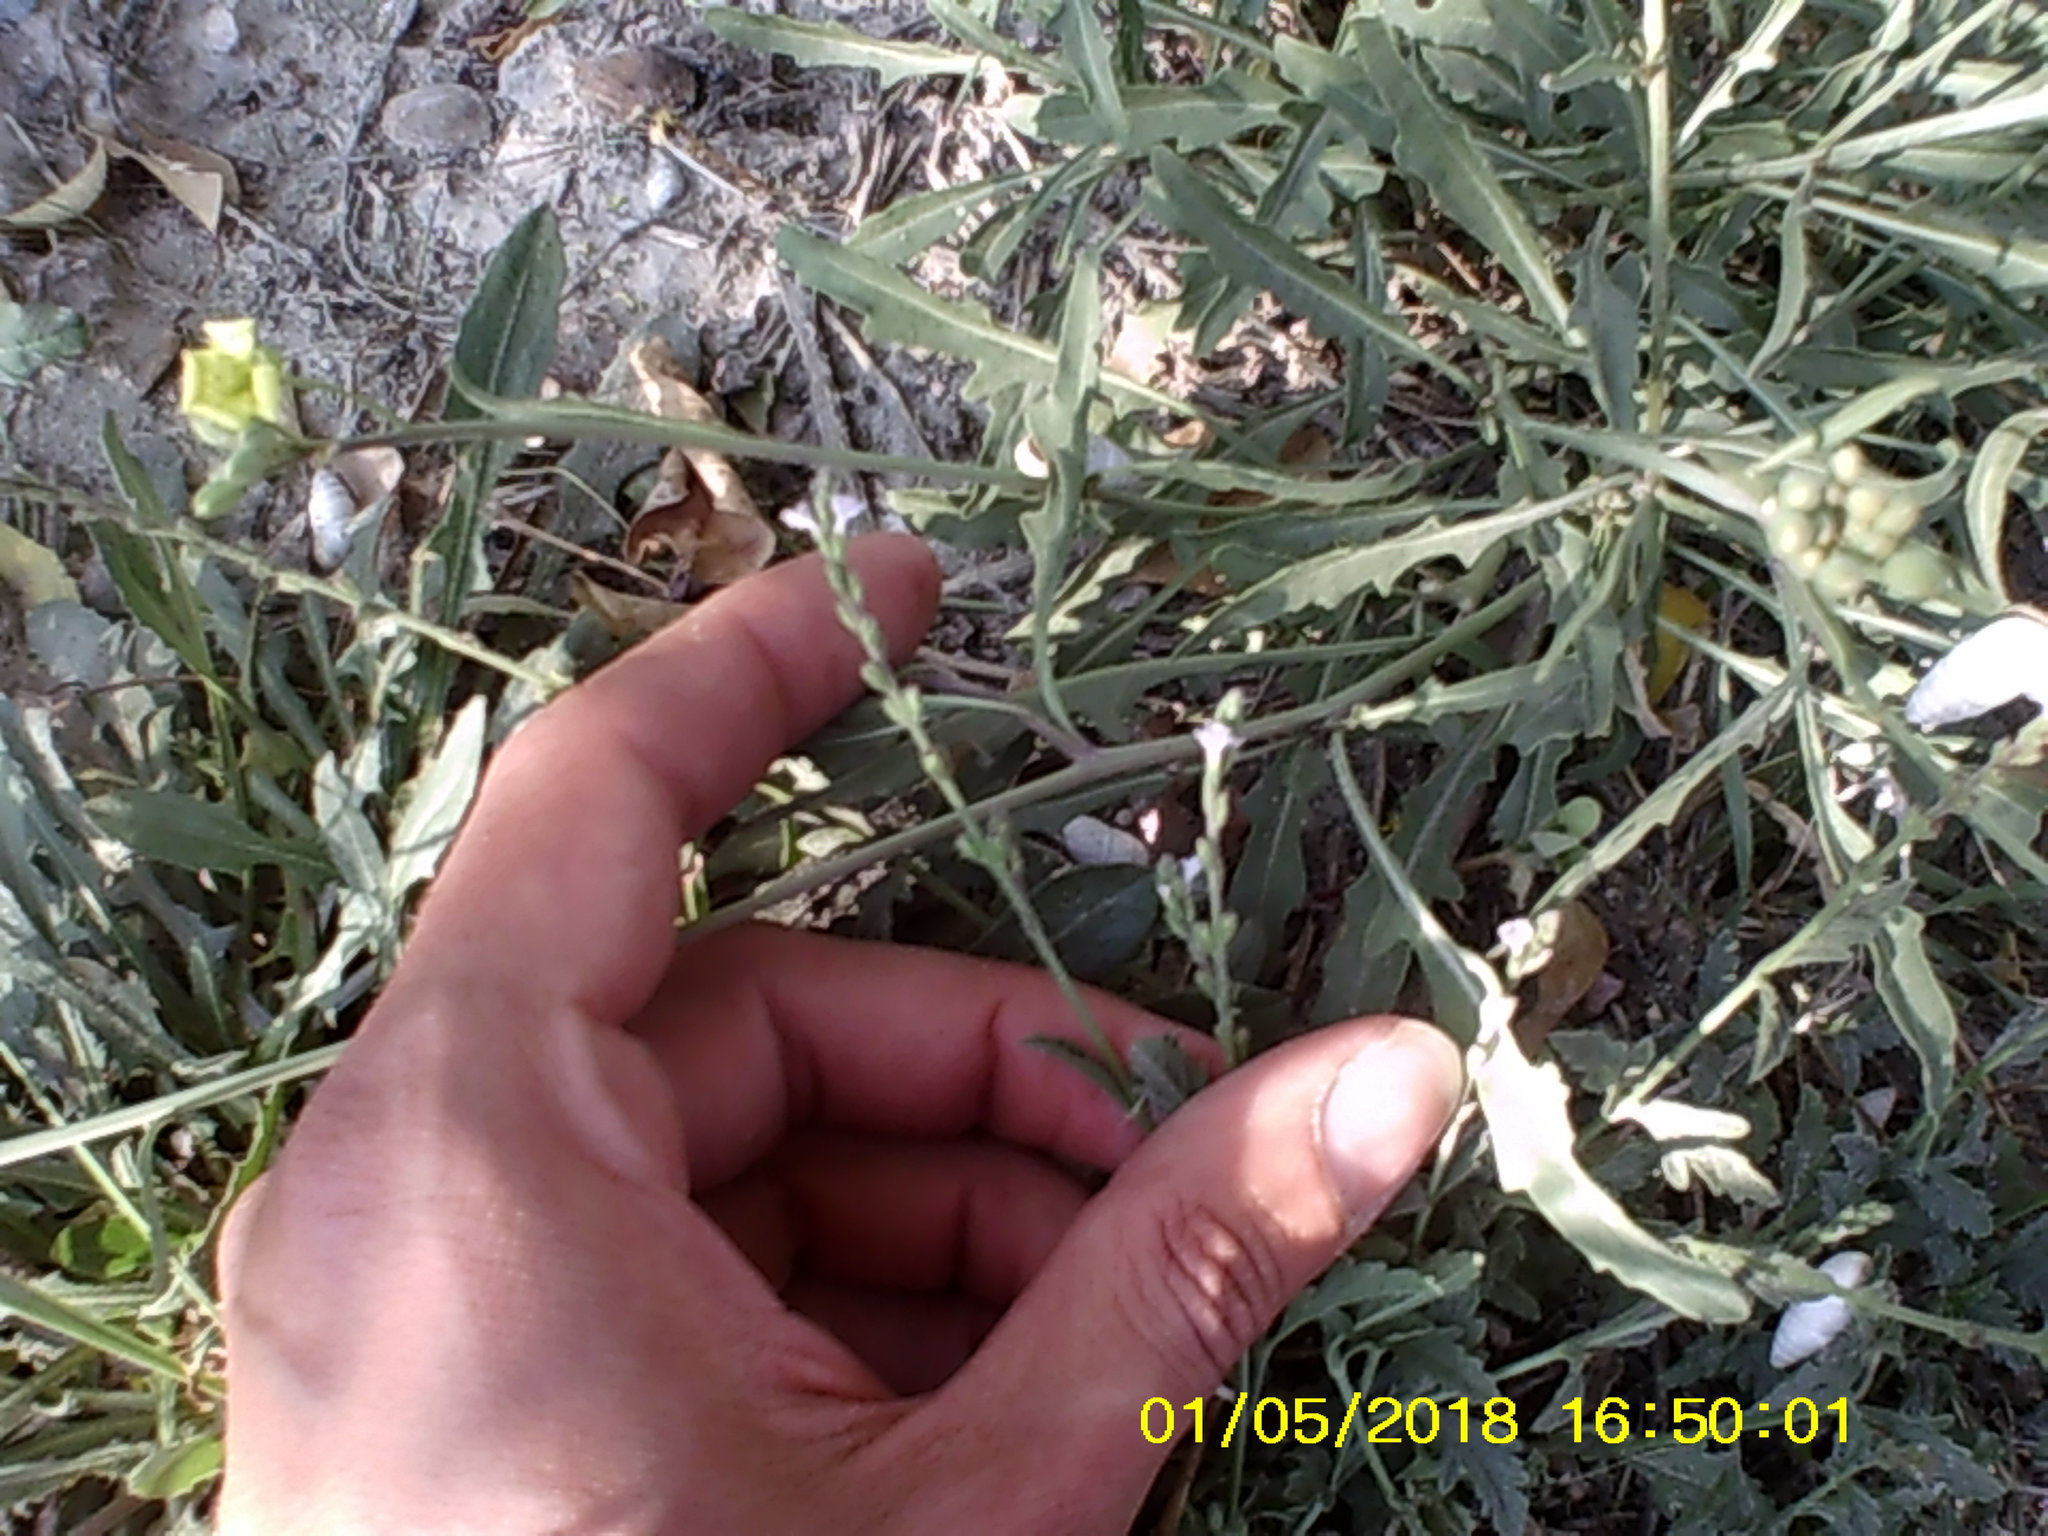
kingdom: Plantae
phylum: Tracheophyta
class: Magnoliopsida
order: Lamiales
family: Verbenaceae
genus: Verbena
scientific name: Verbena officinalis
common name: Vervain
